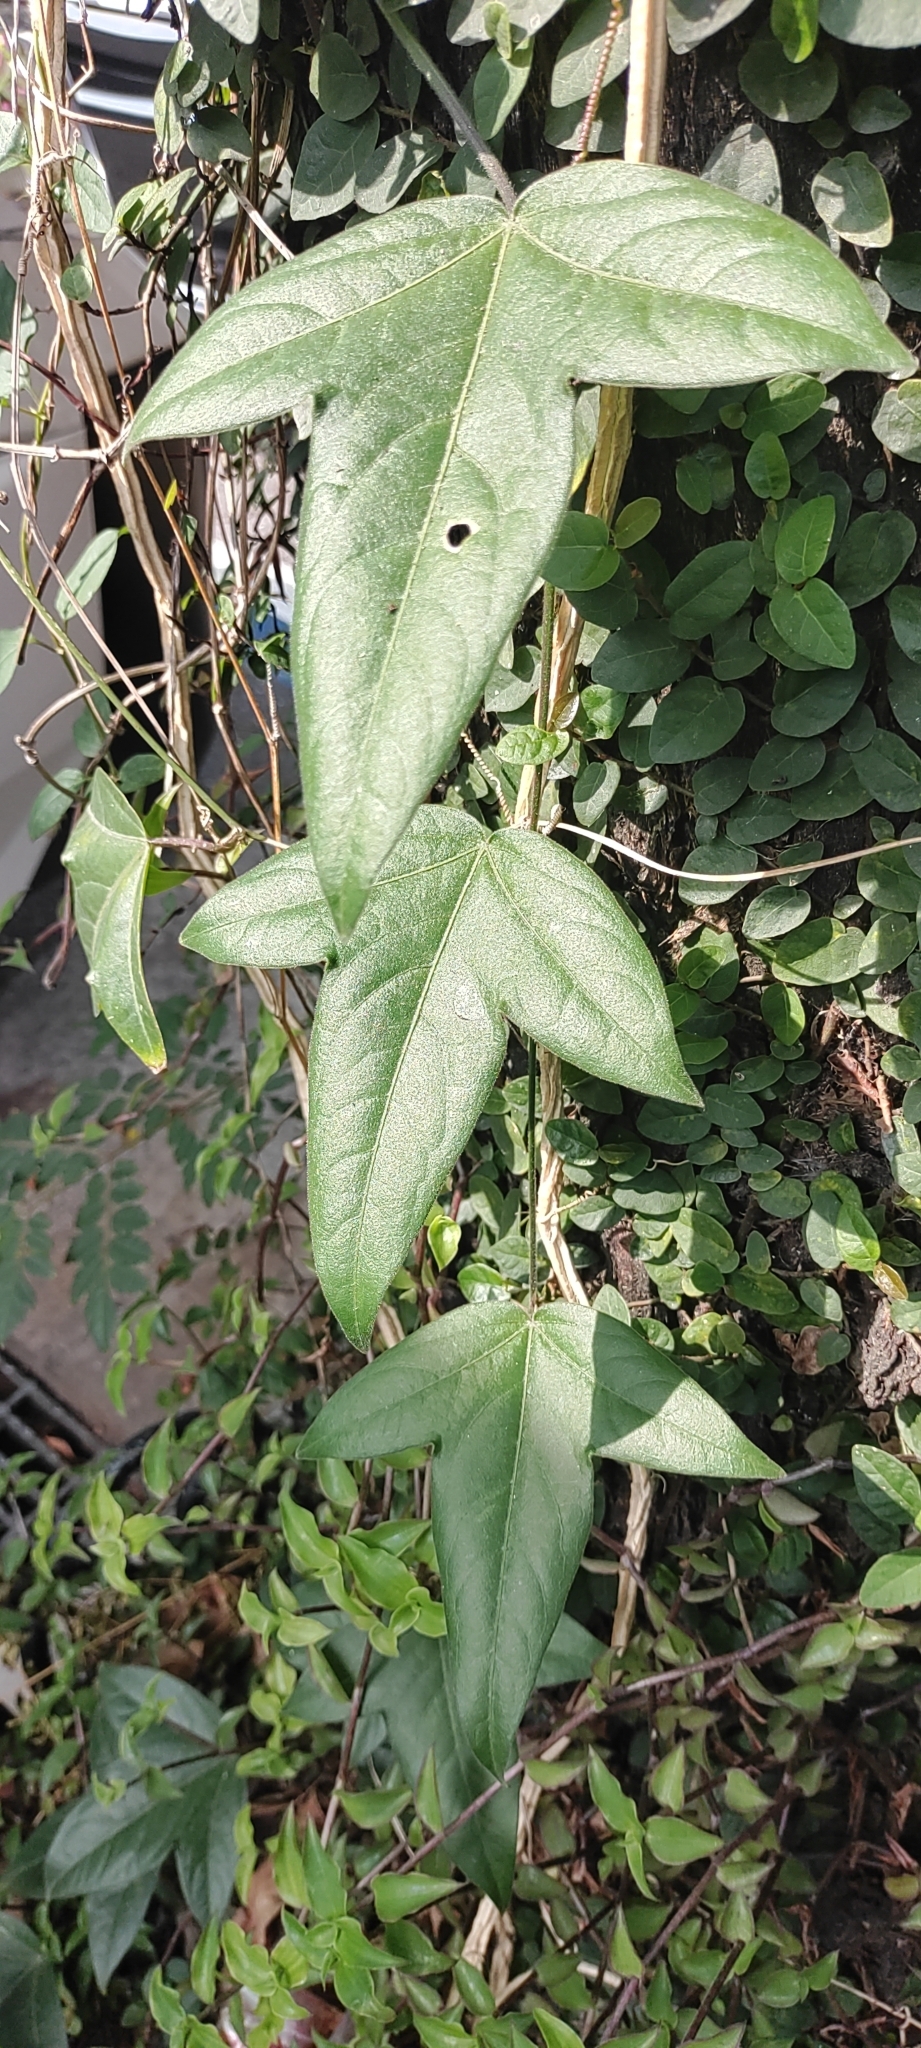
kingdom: Plantae
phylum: Tracheophyta
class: Magnoliopsida
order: Malpighiales
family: Passifloraceae
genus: Passiflora
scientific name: Passiflora suberosa
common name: Wild passionfruit
